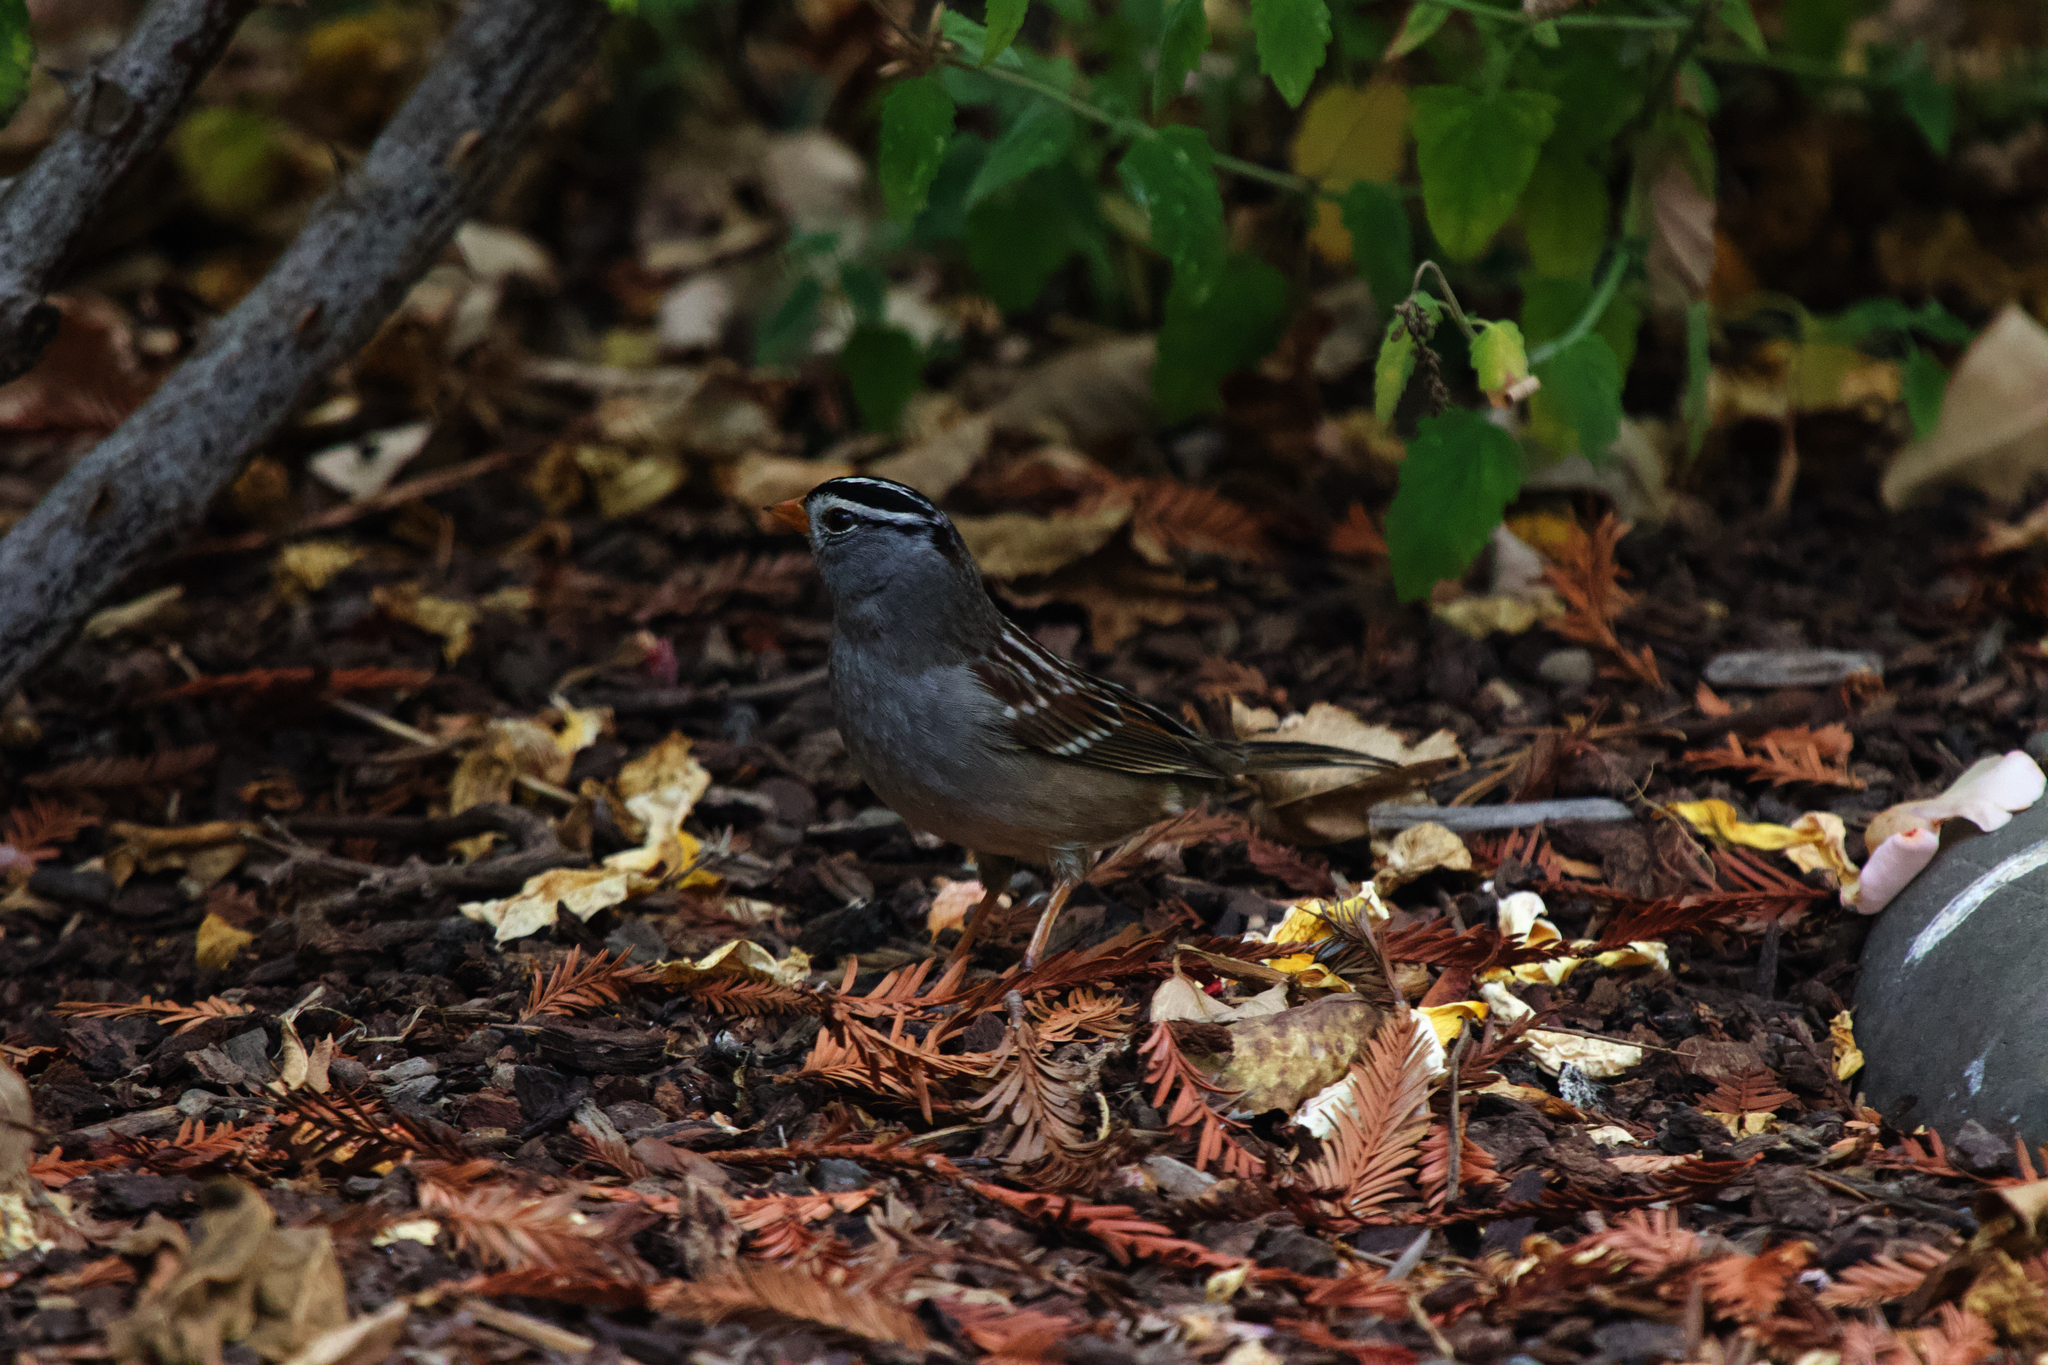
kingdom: Animalia
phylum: Chordata
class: Aves
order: Passeriformes
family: Passerellidae
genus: Zonotrichia
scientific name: Zonotrichia leucophrys
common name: White-crowned sparrow
